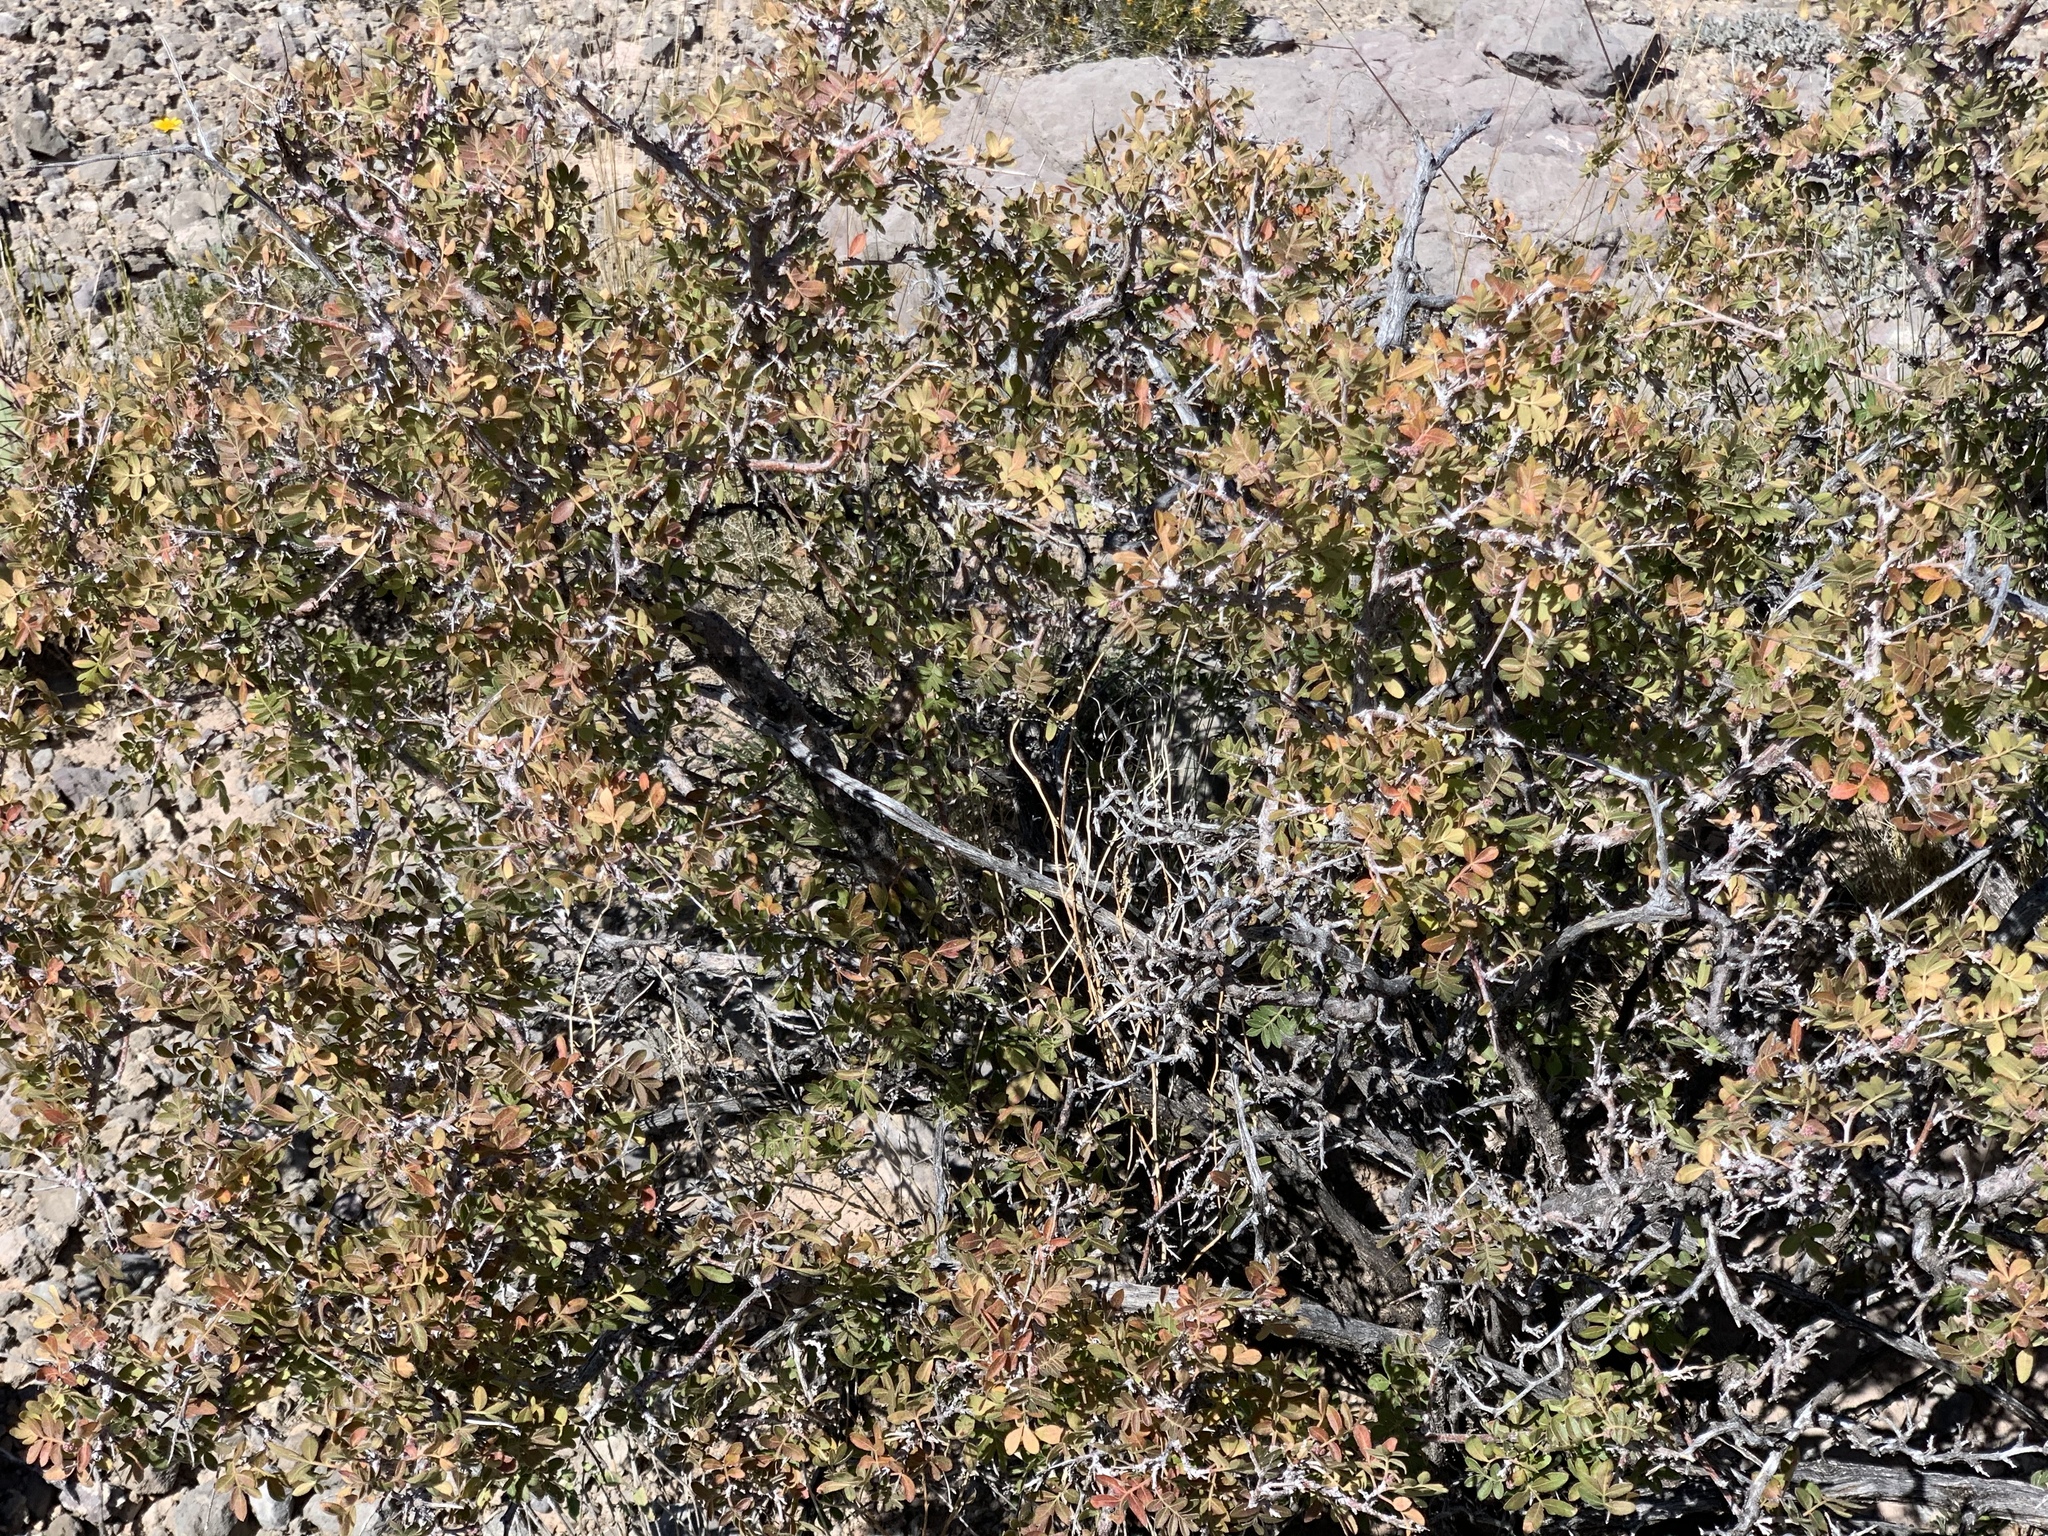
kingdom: Plantae
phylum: Tracheophyta
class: Magnoliopsida
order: Sapindales
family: Anacardiaceae
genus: Rhus
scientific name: Rhus microphylla
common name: Desert sumac
